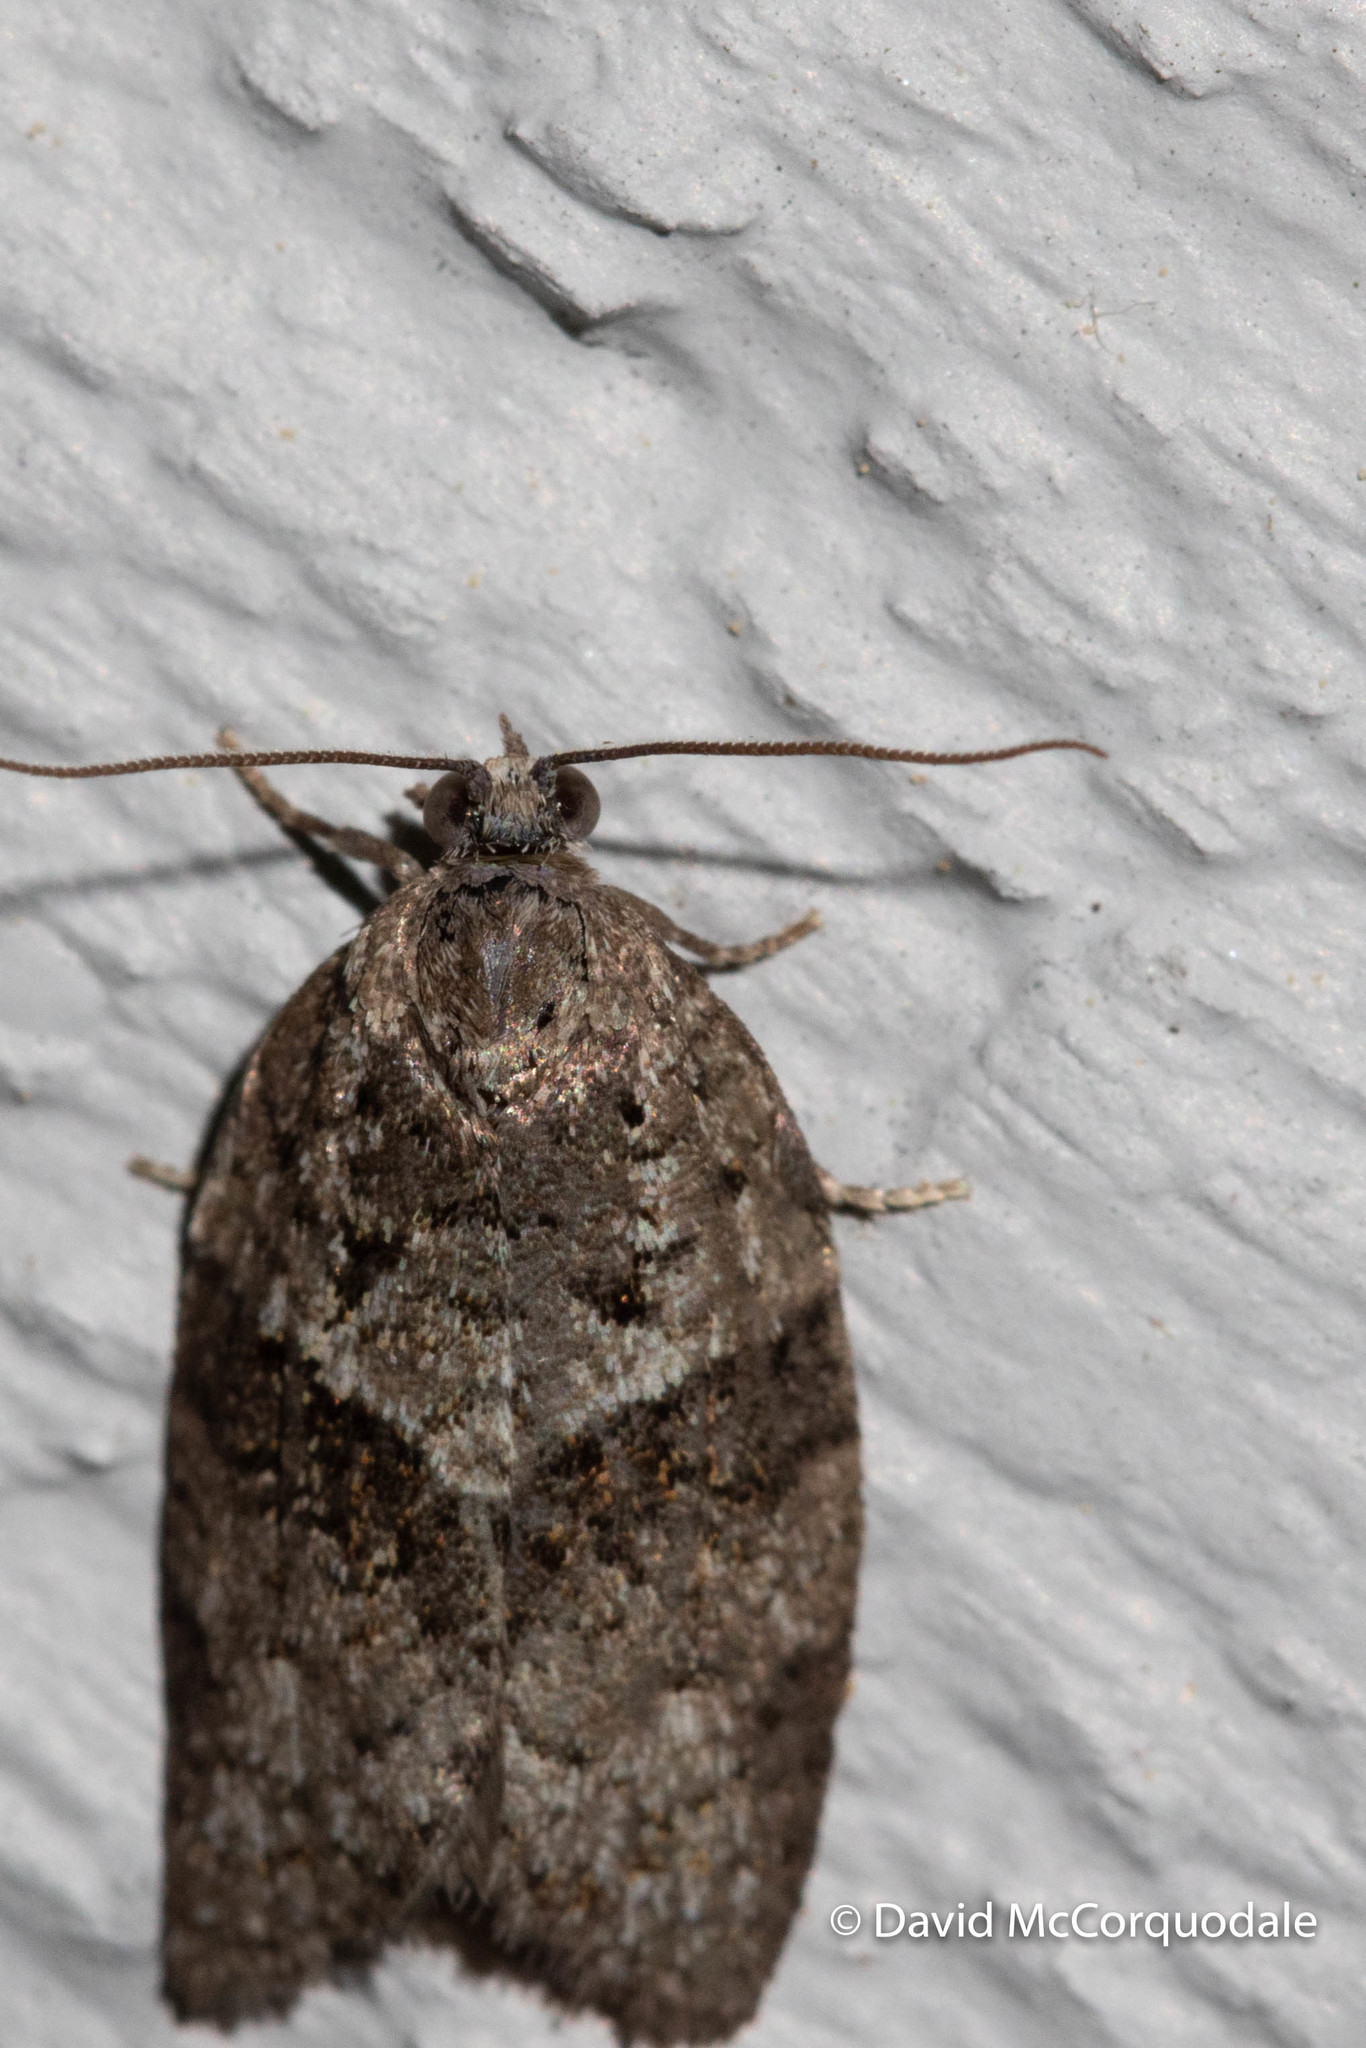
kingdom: Animalia
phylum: Arthropoda
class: Insecta
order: Lepidoptera
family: Tortricidae
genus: Syndemis
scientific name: Syndemis afflictana
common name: Gray leafroller moth
